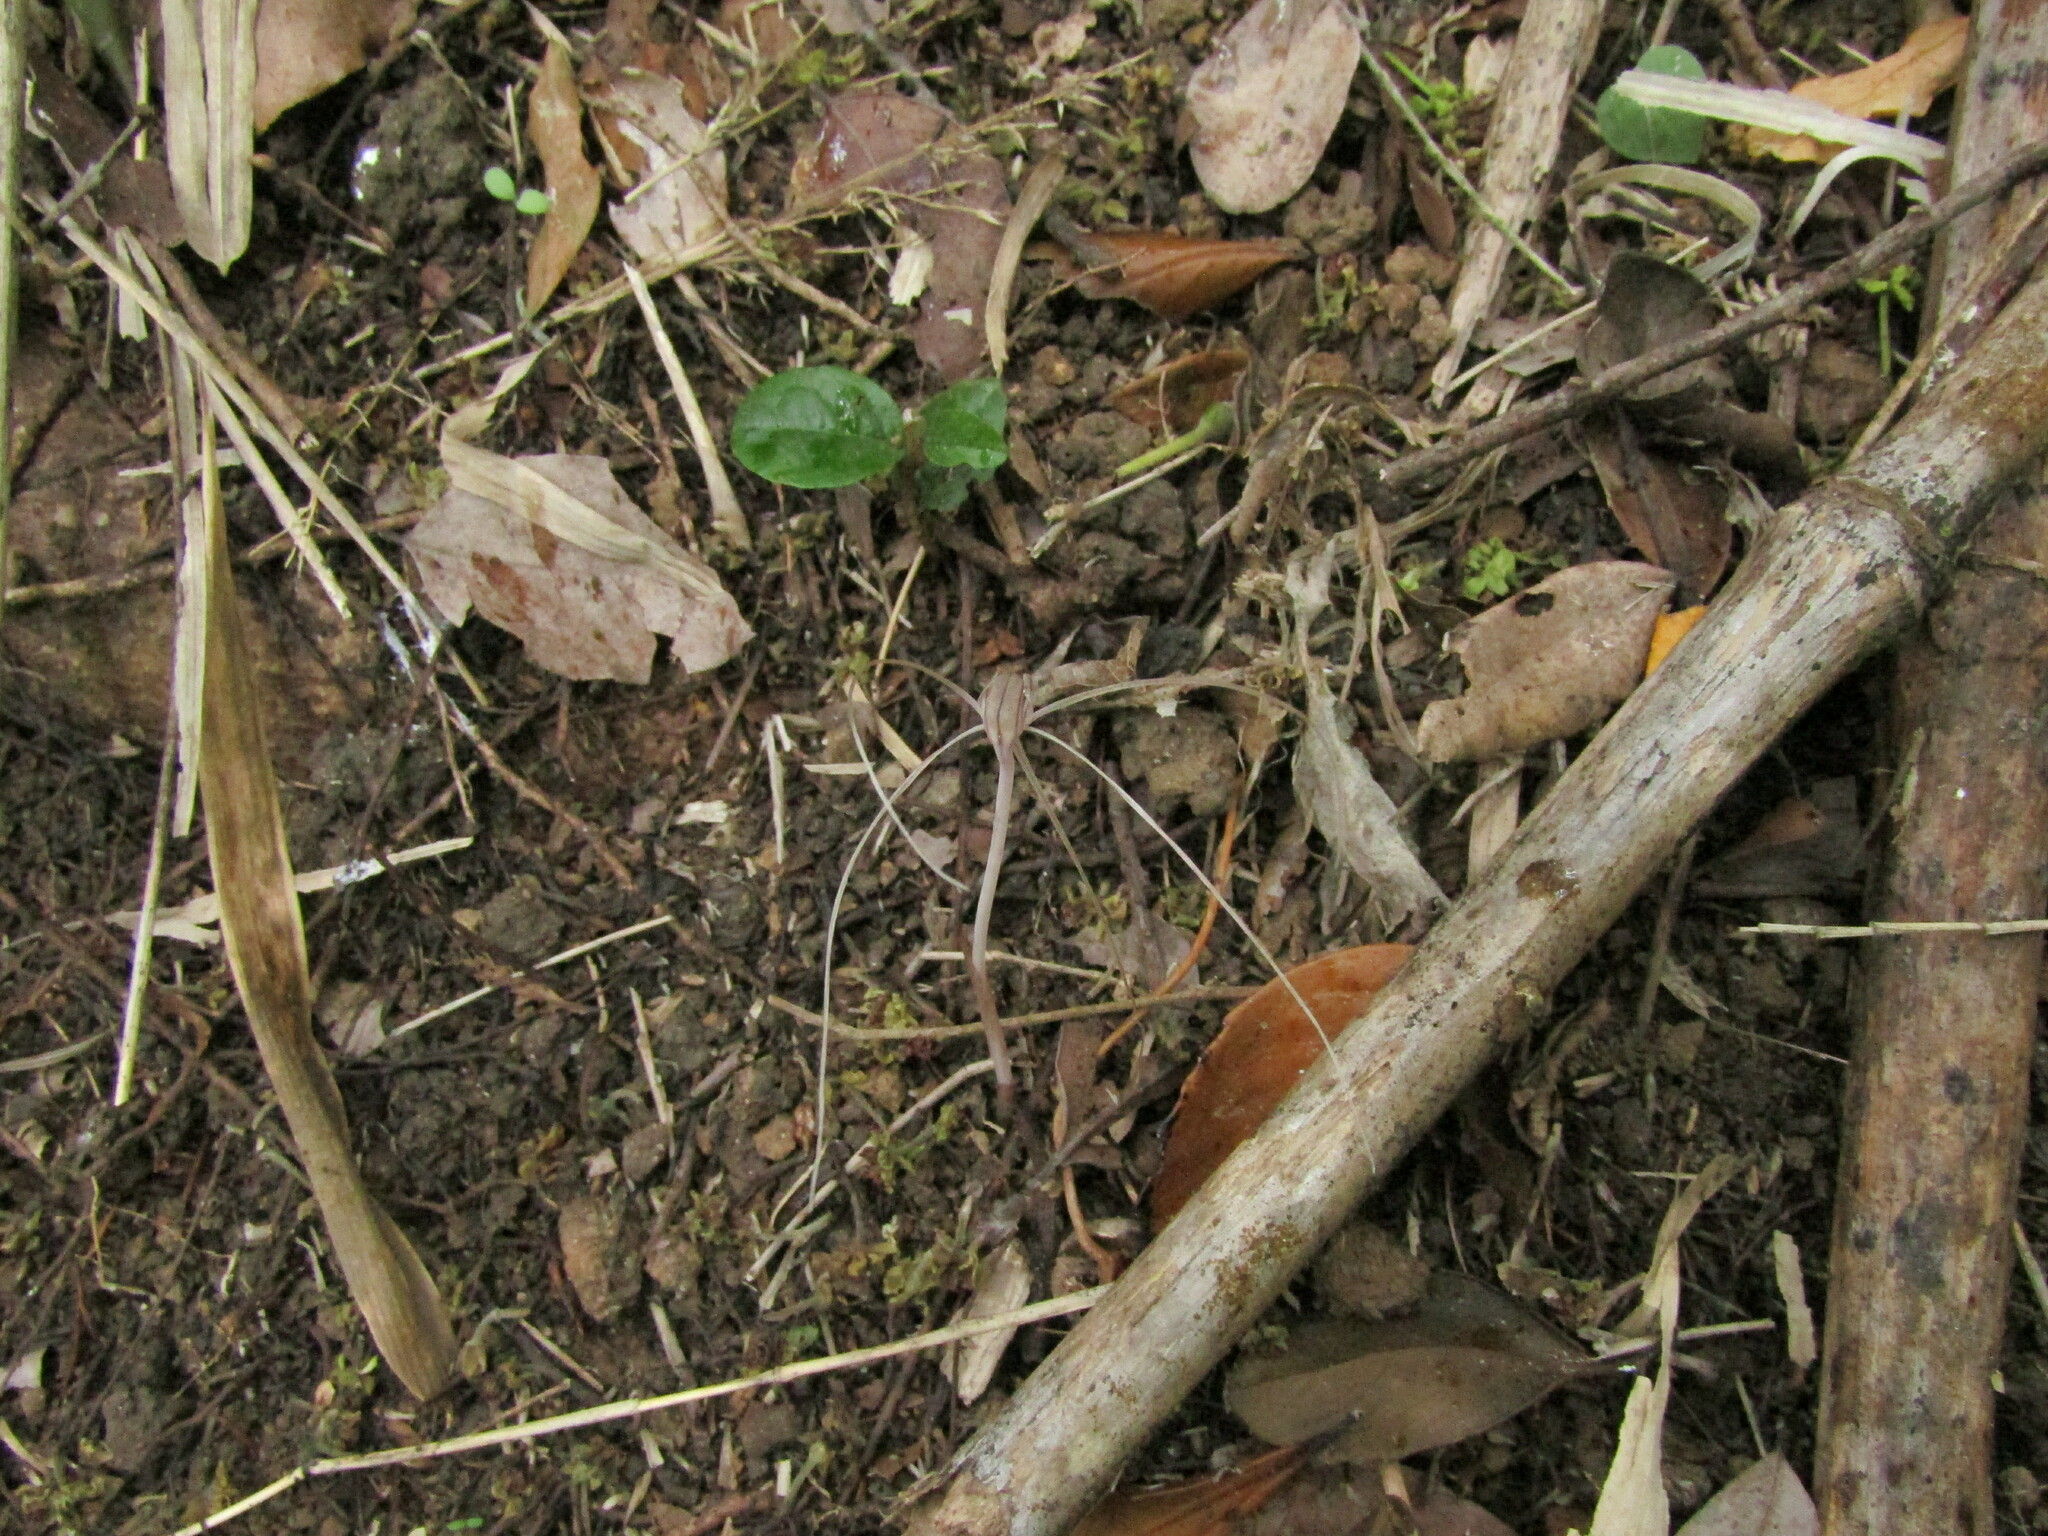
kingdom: Plantae
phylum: Tracheophyta
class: Liliopsida
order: Liliales
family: Corsiaceae
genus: Arachnitis
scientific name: Arachnitis uniflora
